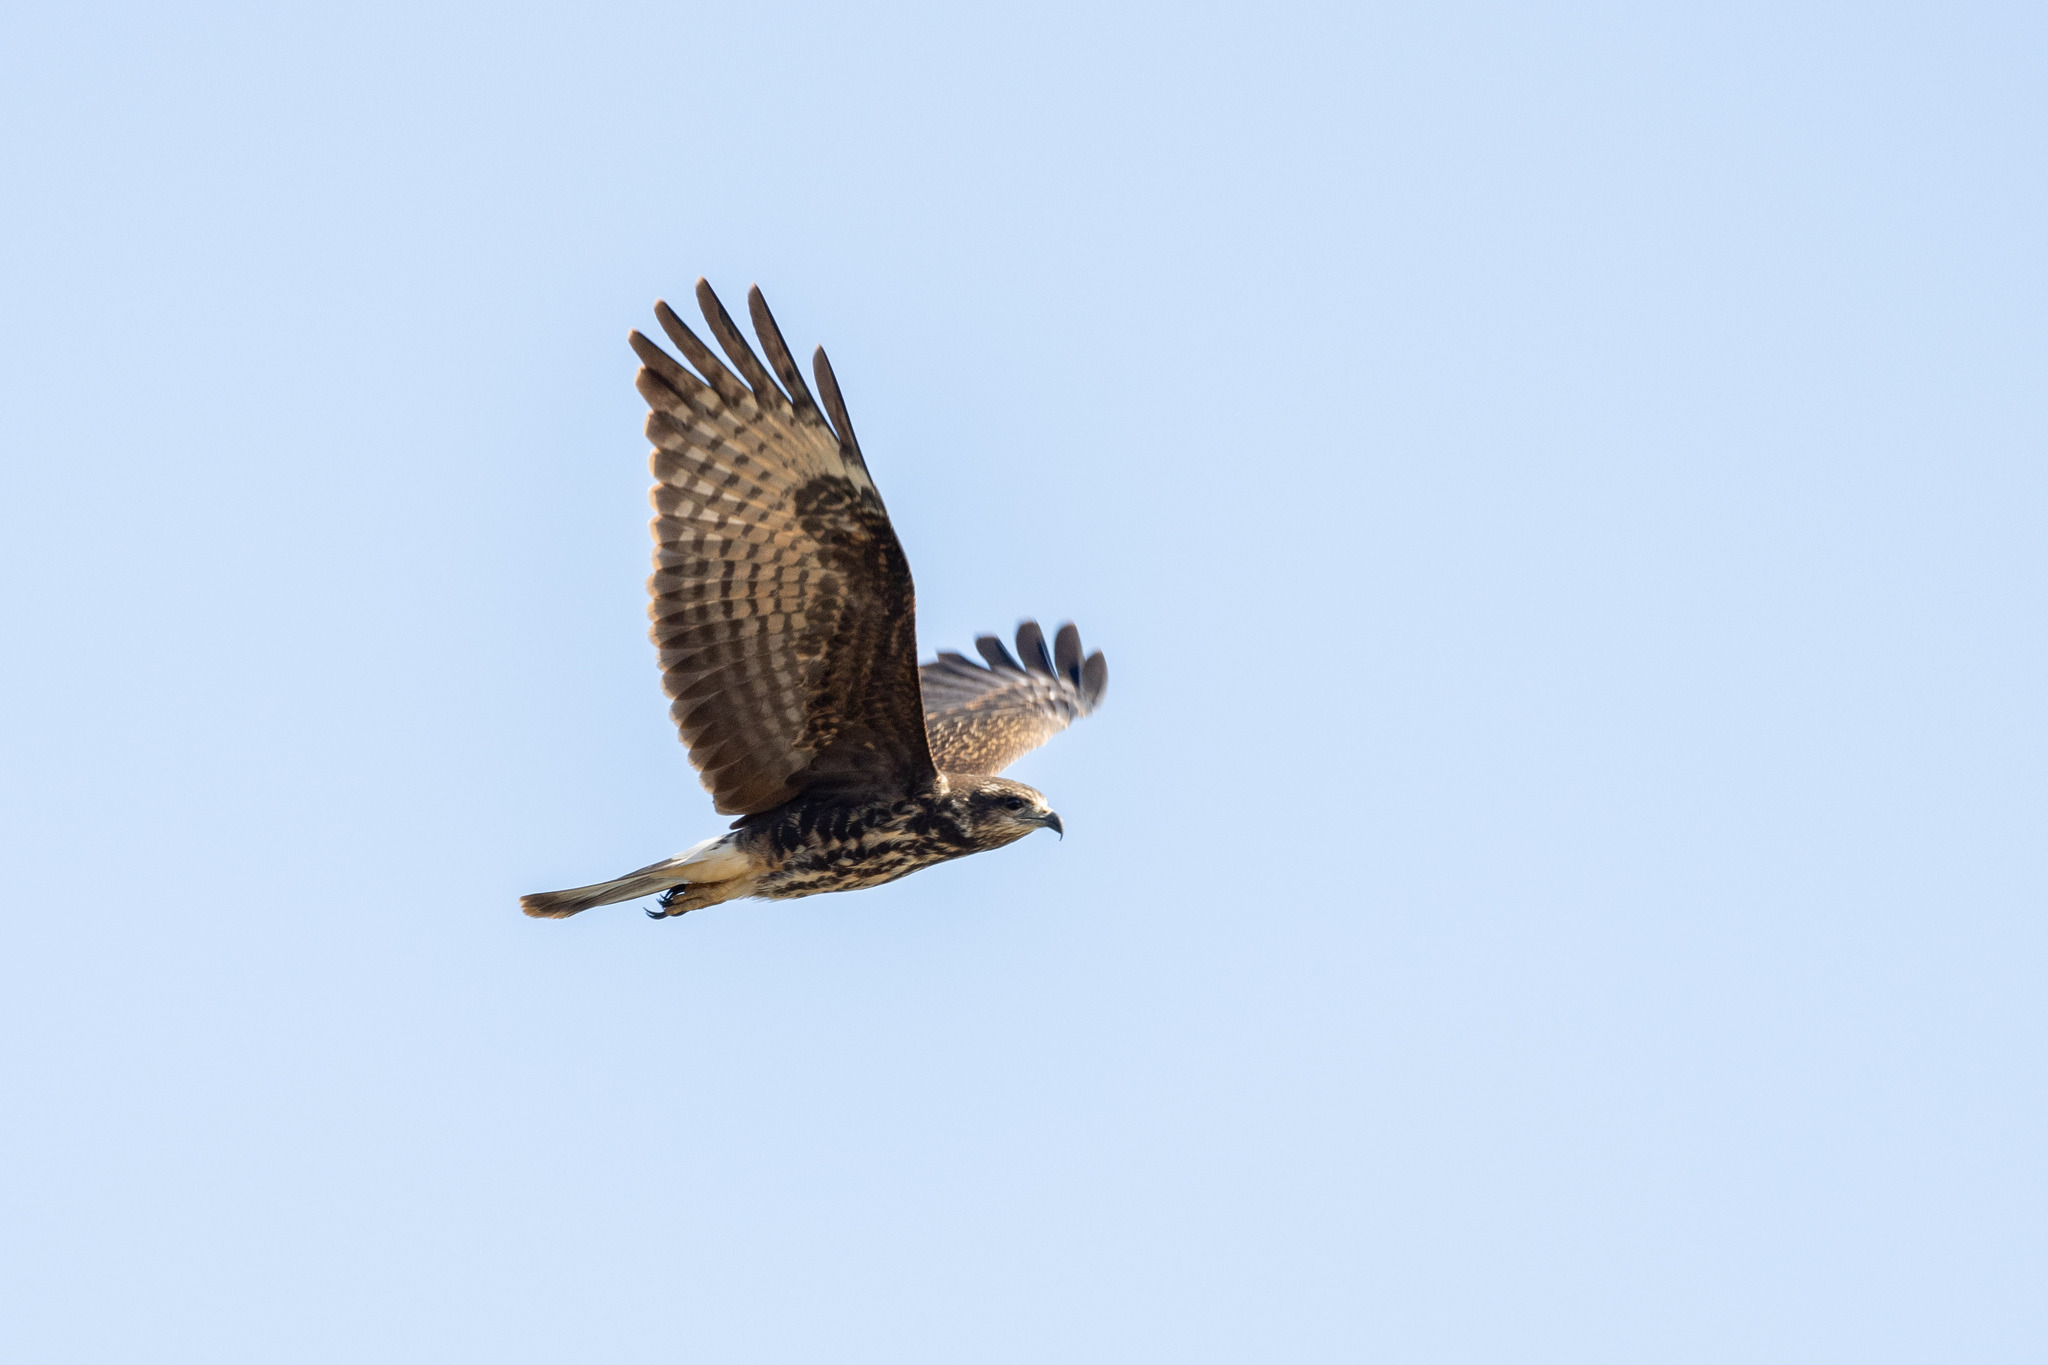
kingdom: Animalia
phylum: Chordata
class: Aves
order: Accipitriformes
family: Accipitridae
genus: Rostrhamus
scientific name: Rostrhamus sociabilis
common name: Snail kite
